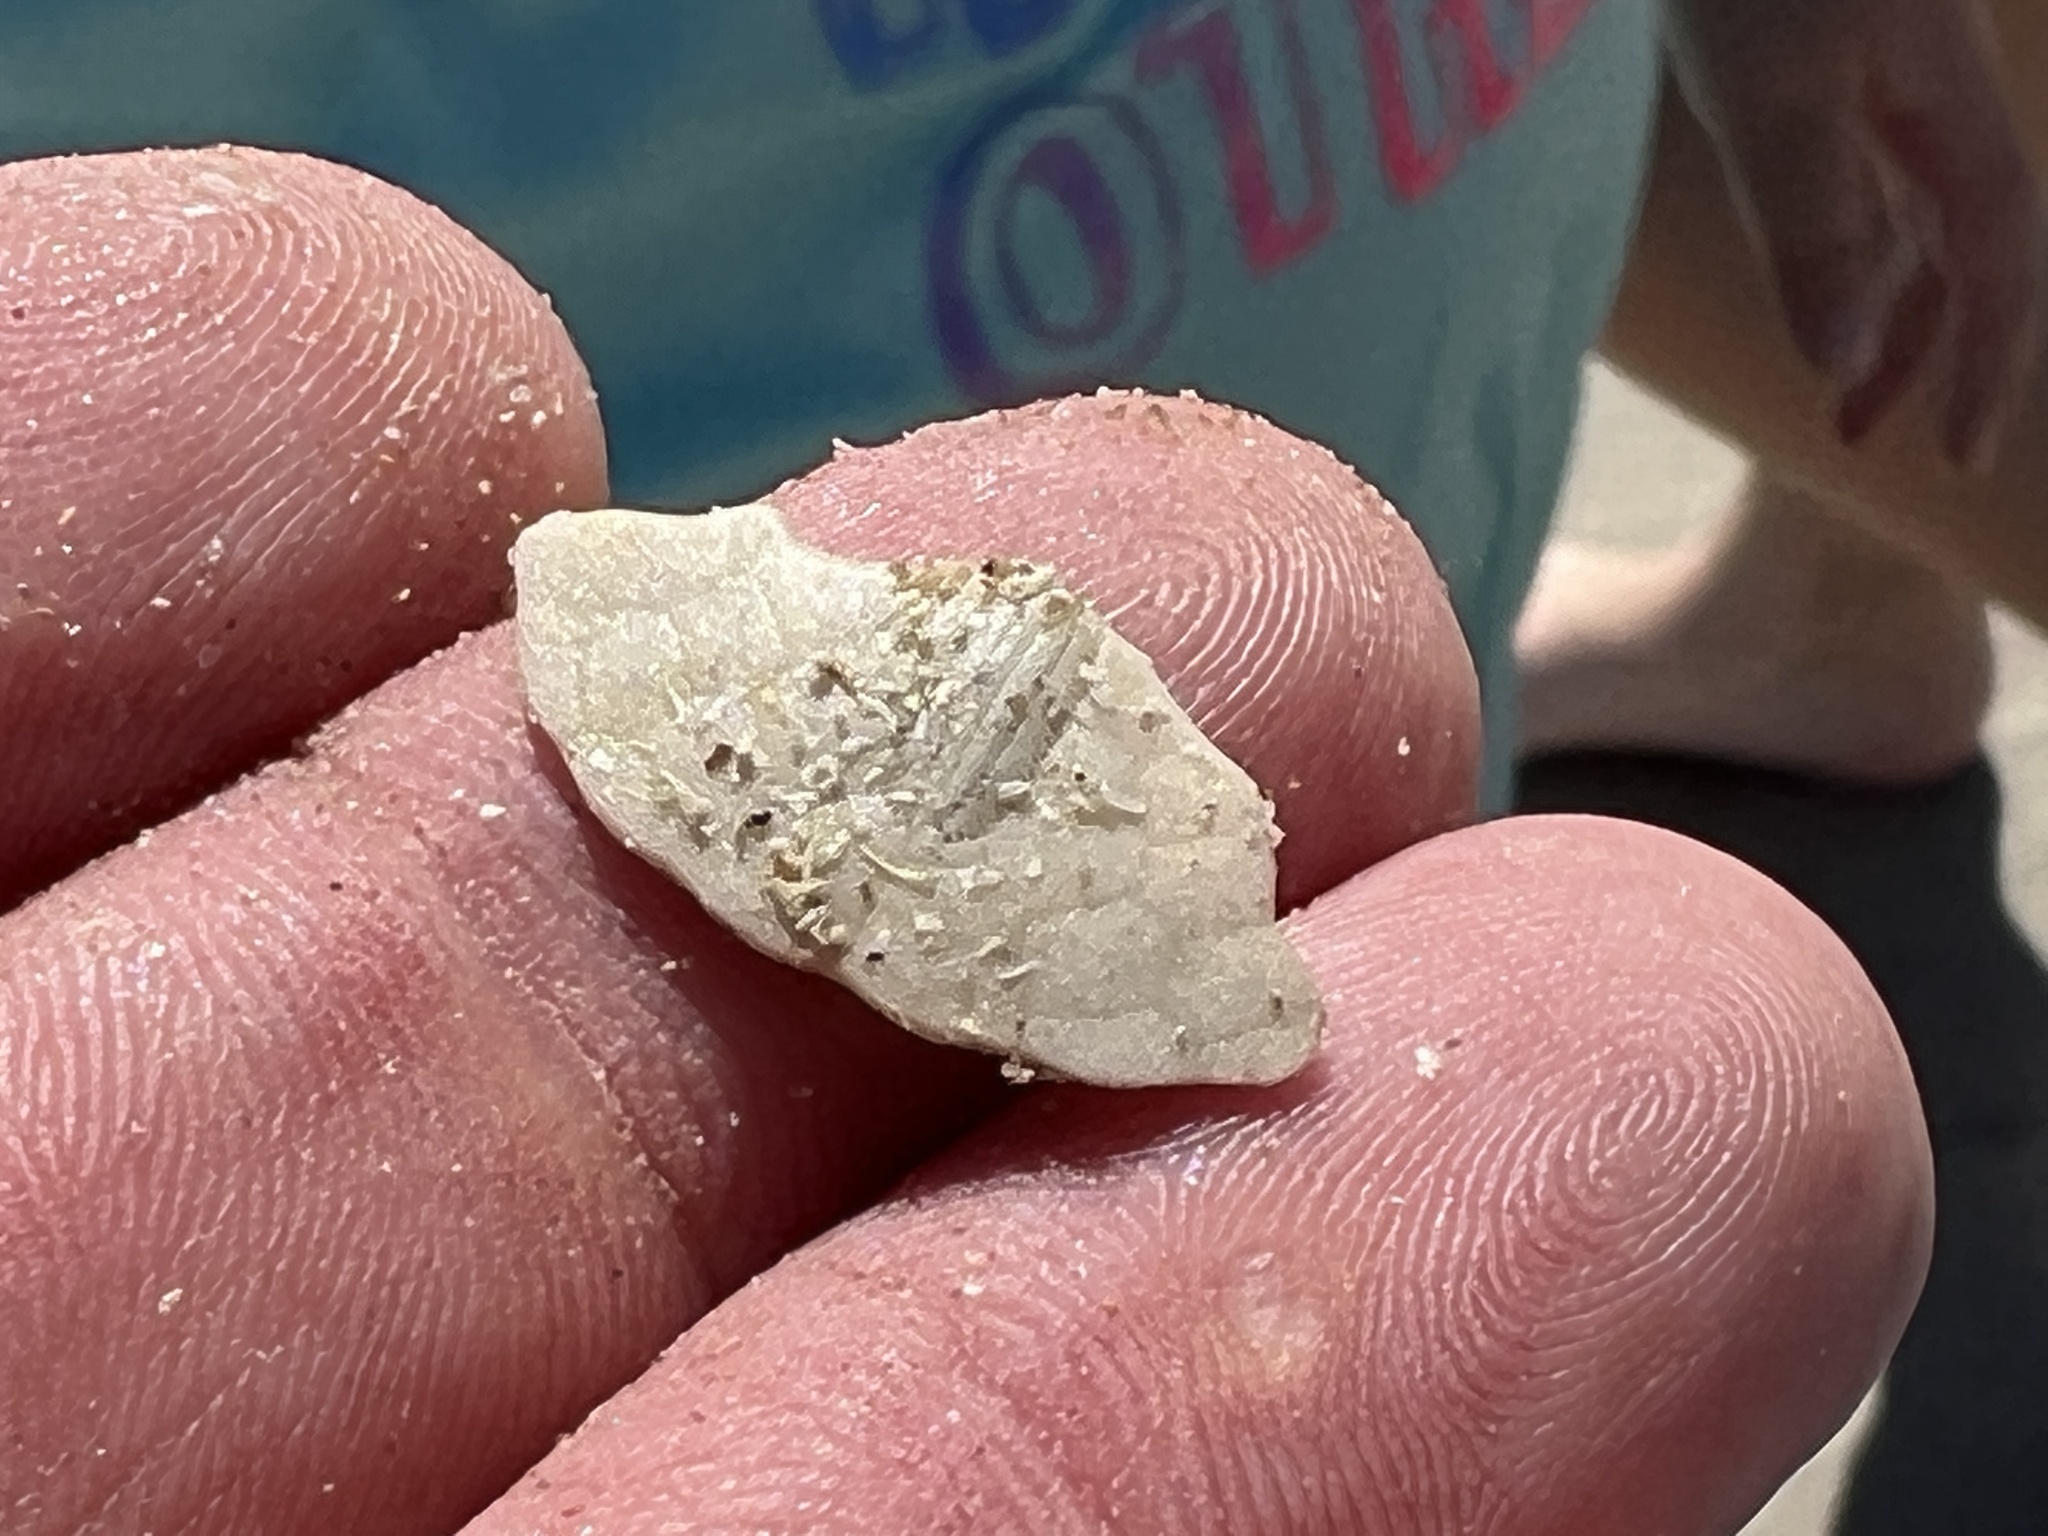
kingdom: Animalia
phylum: Echinodermata
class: Echinoidea
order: Echinolampadacea
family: Mellitidae
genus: Mellita
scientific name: Mellita quinquiesperforata
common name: Sand dollar
